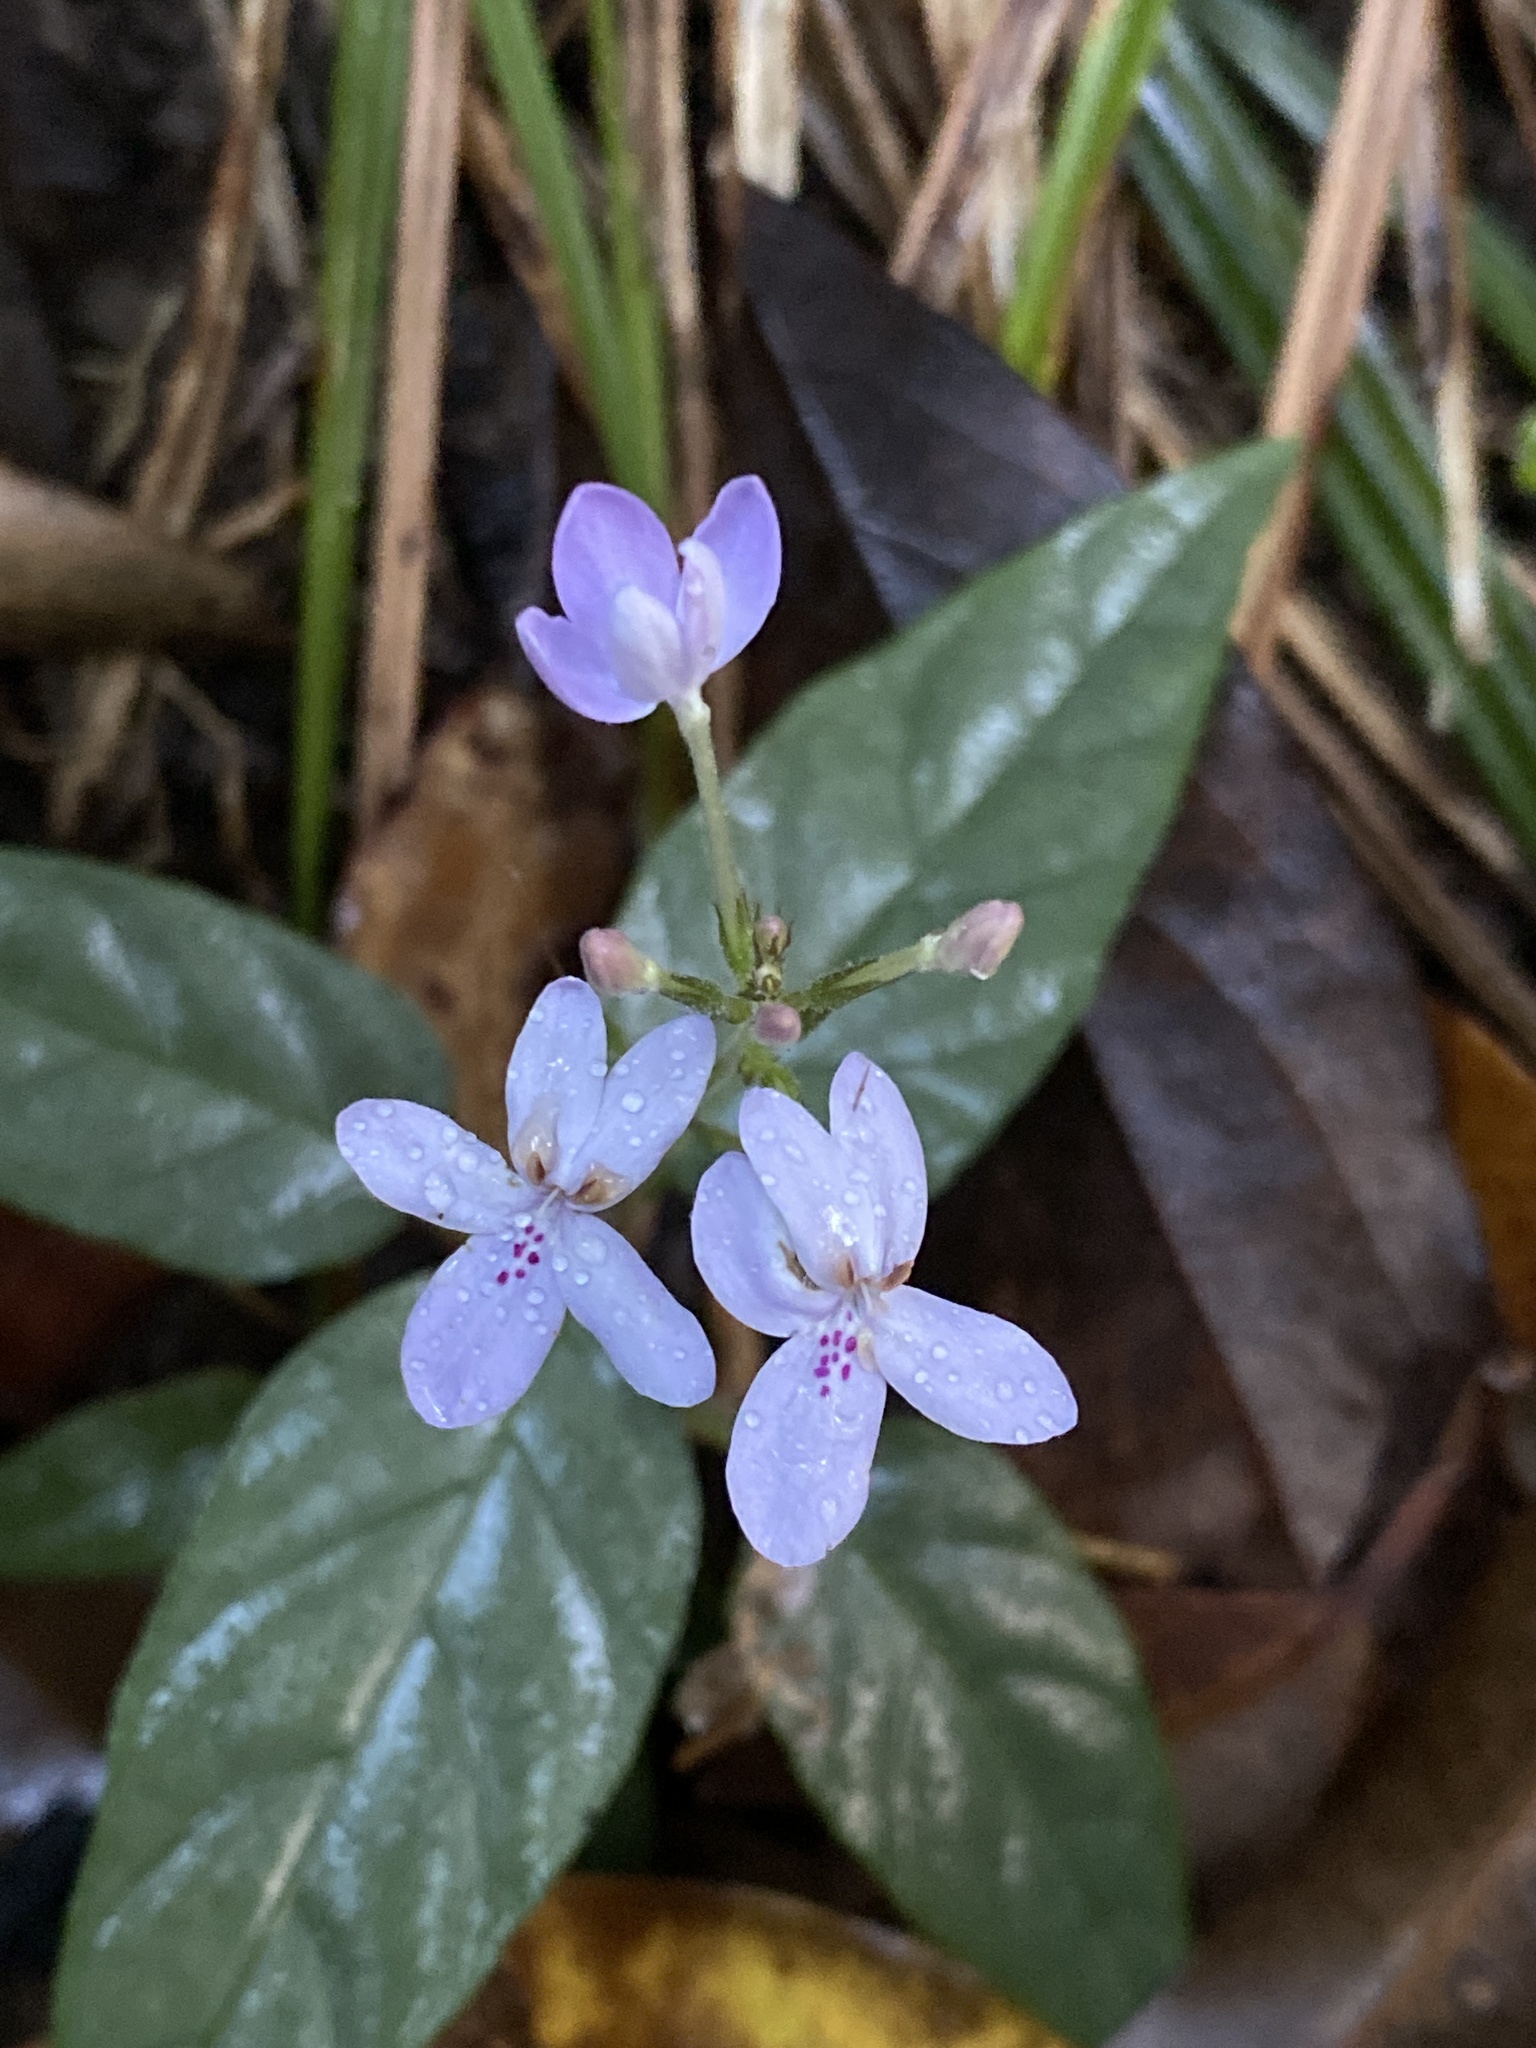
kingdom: Plantae
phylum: Tracheophyta
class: Magnoliopsida
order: Lamiales
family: Acanthaceae
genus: Pseuderanthemum
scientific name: Pseuderanthemum variabile
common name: Night and afternoon
